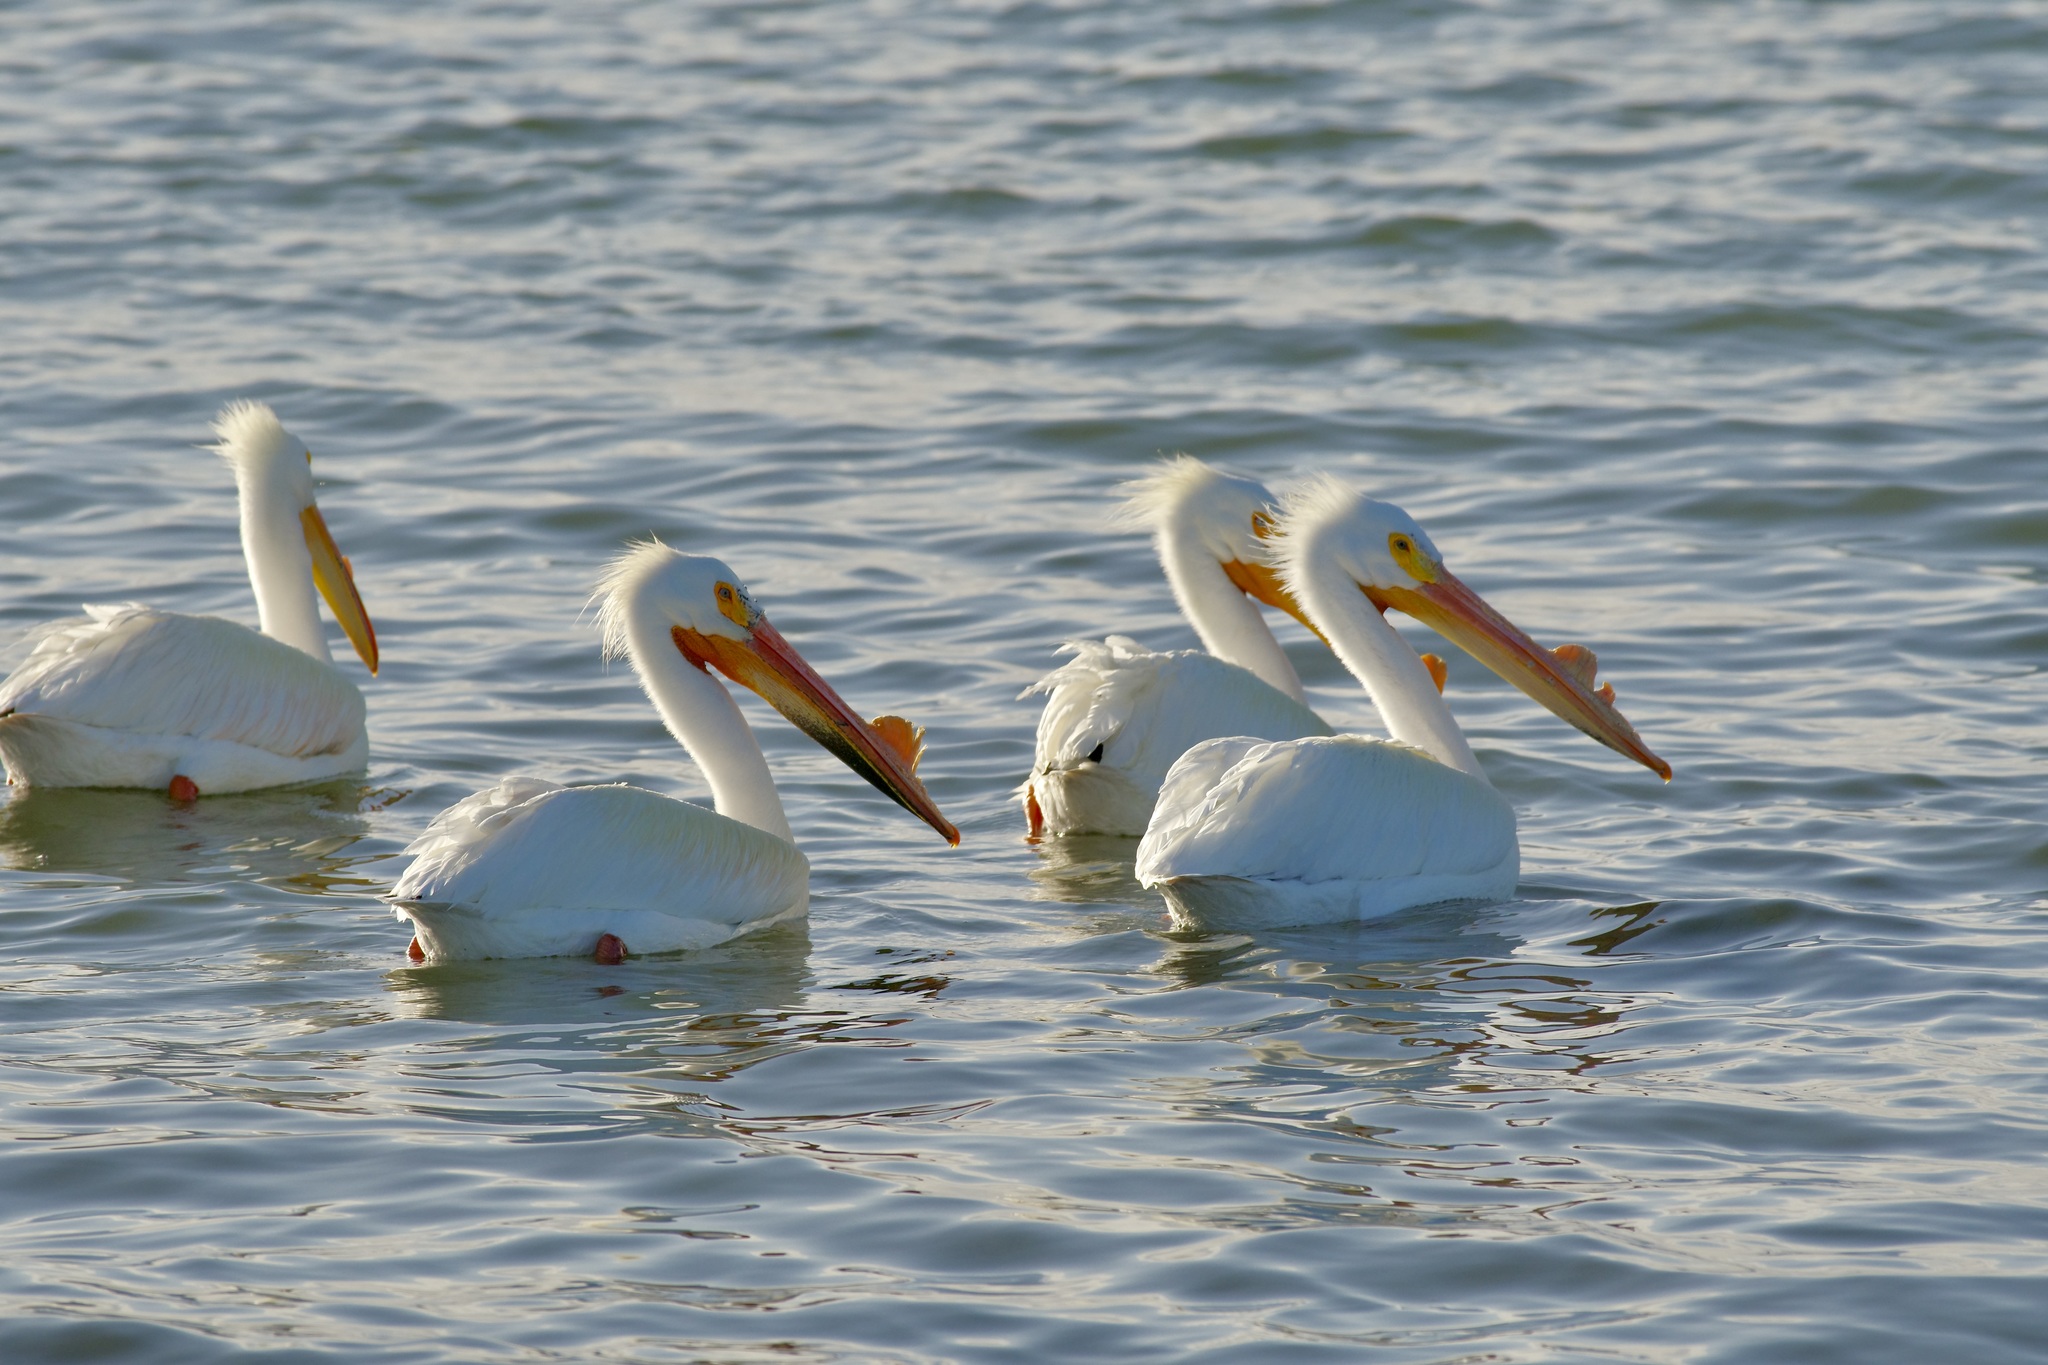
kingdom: Animalia
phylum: Chordata
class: Aves
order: Pelecaniformes
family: Pelecanidae
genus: Pelecanus
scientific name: Pelecanus erythrorhynchos
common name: American white pelican
